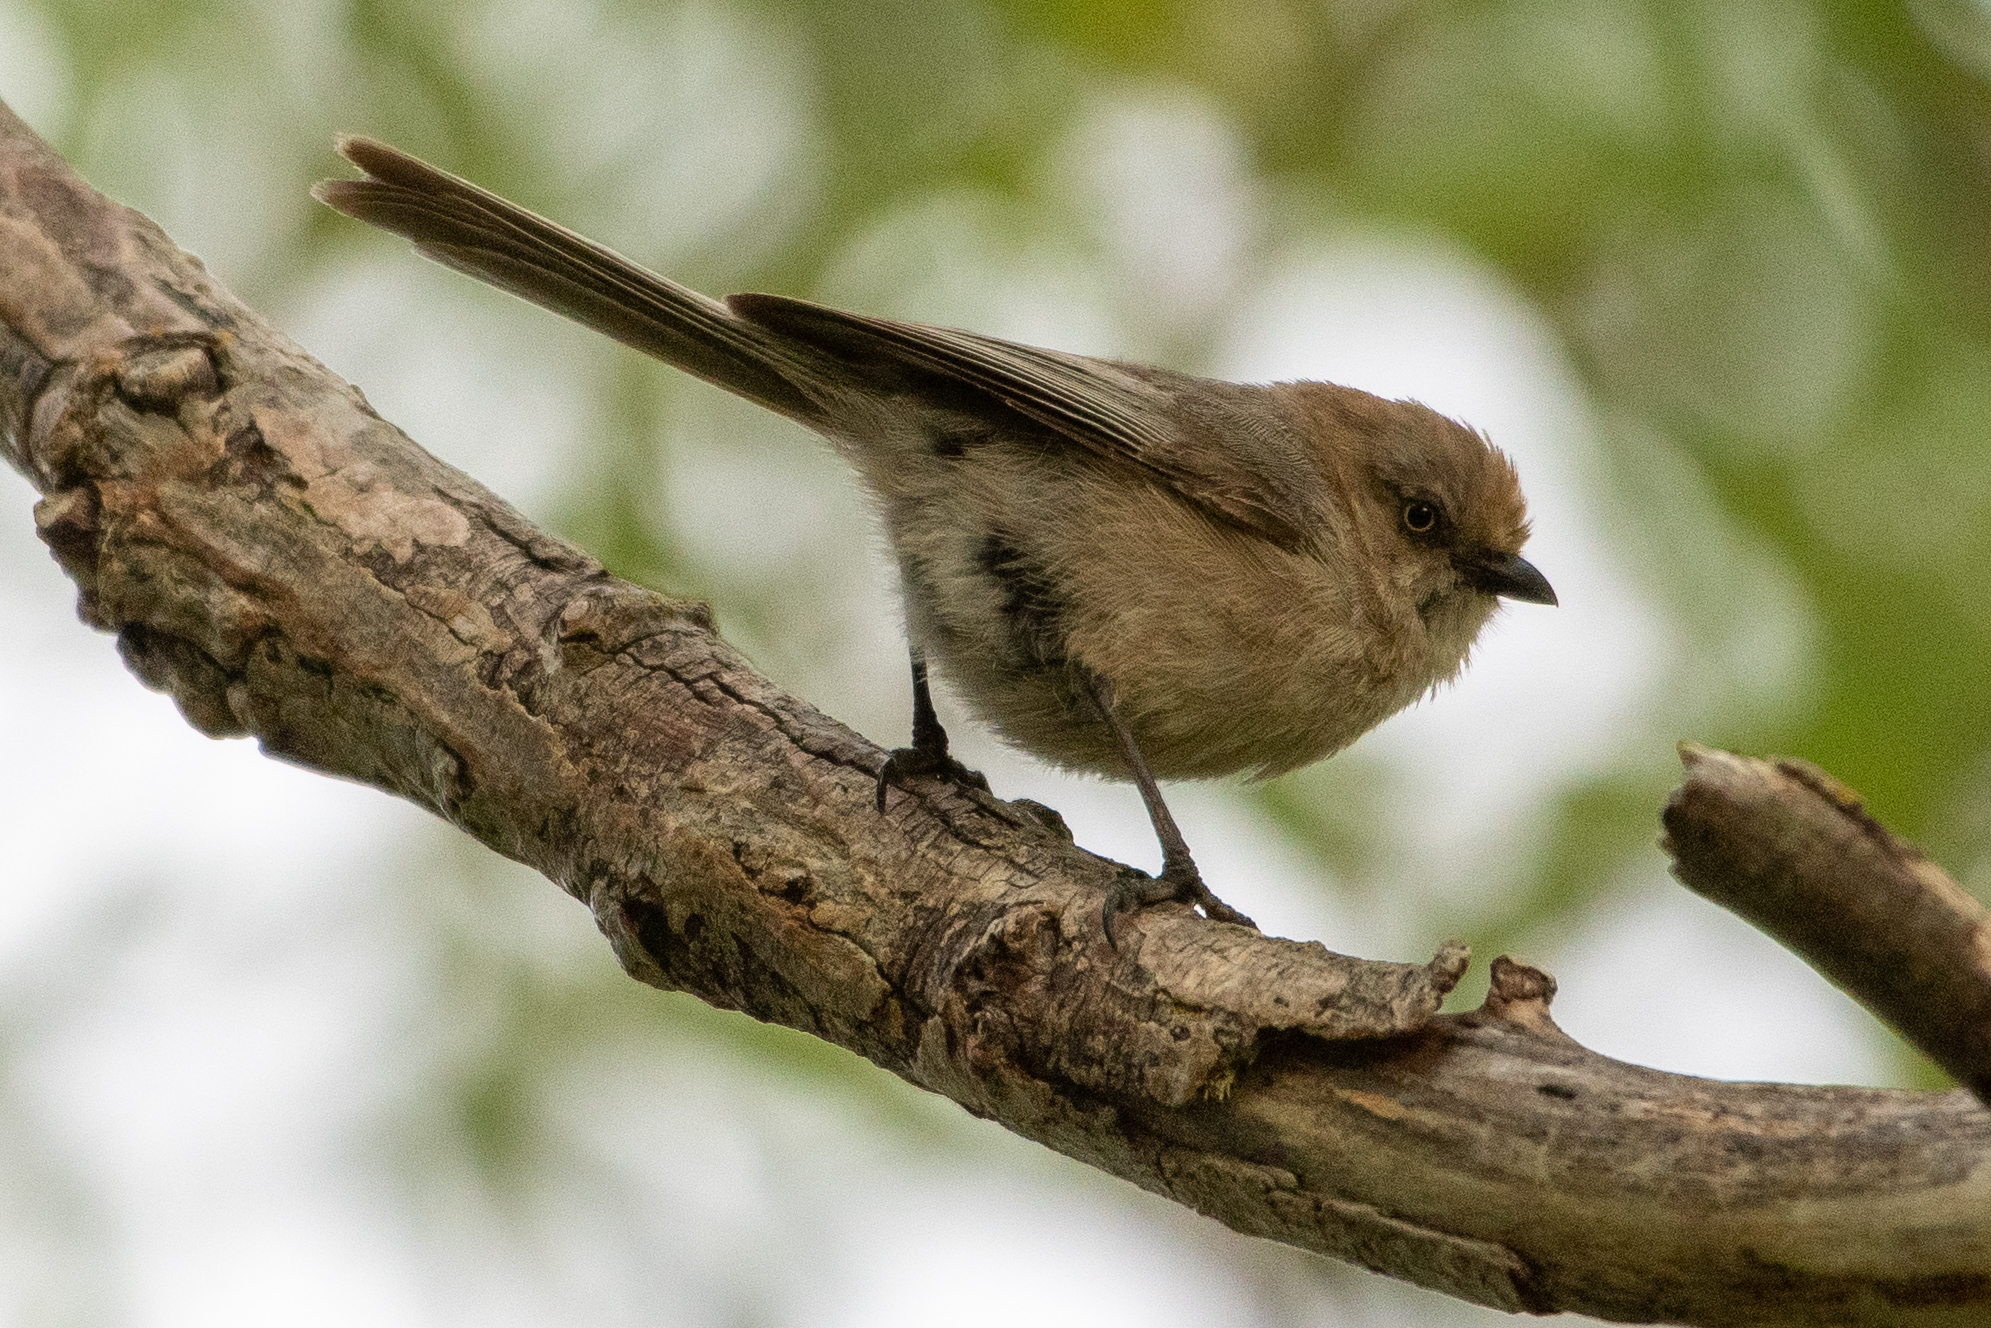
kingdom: Animalia
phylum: Chordata
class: Aves
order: Passeriformes
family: Aegithalidae
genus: Psaltriparus
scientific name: Psaltriparus minimus
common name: American bushtit
